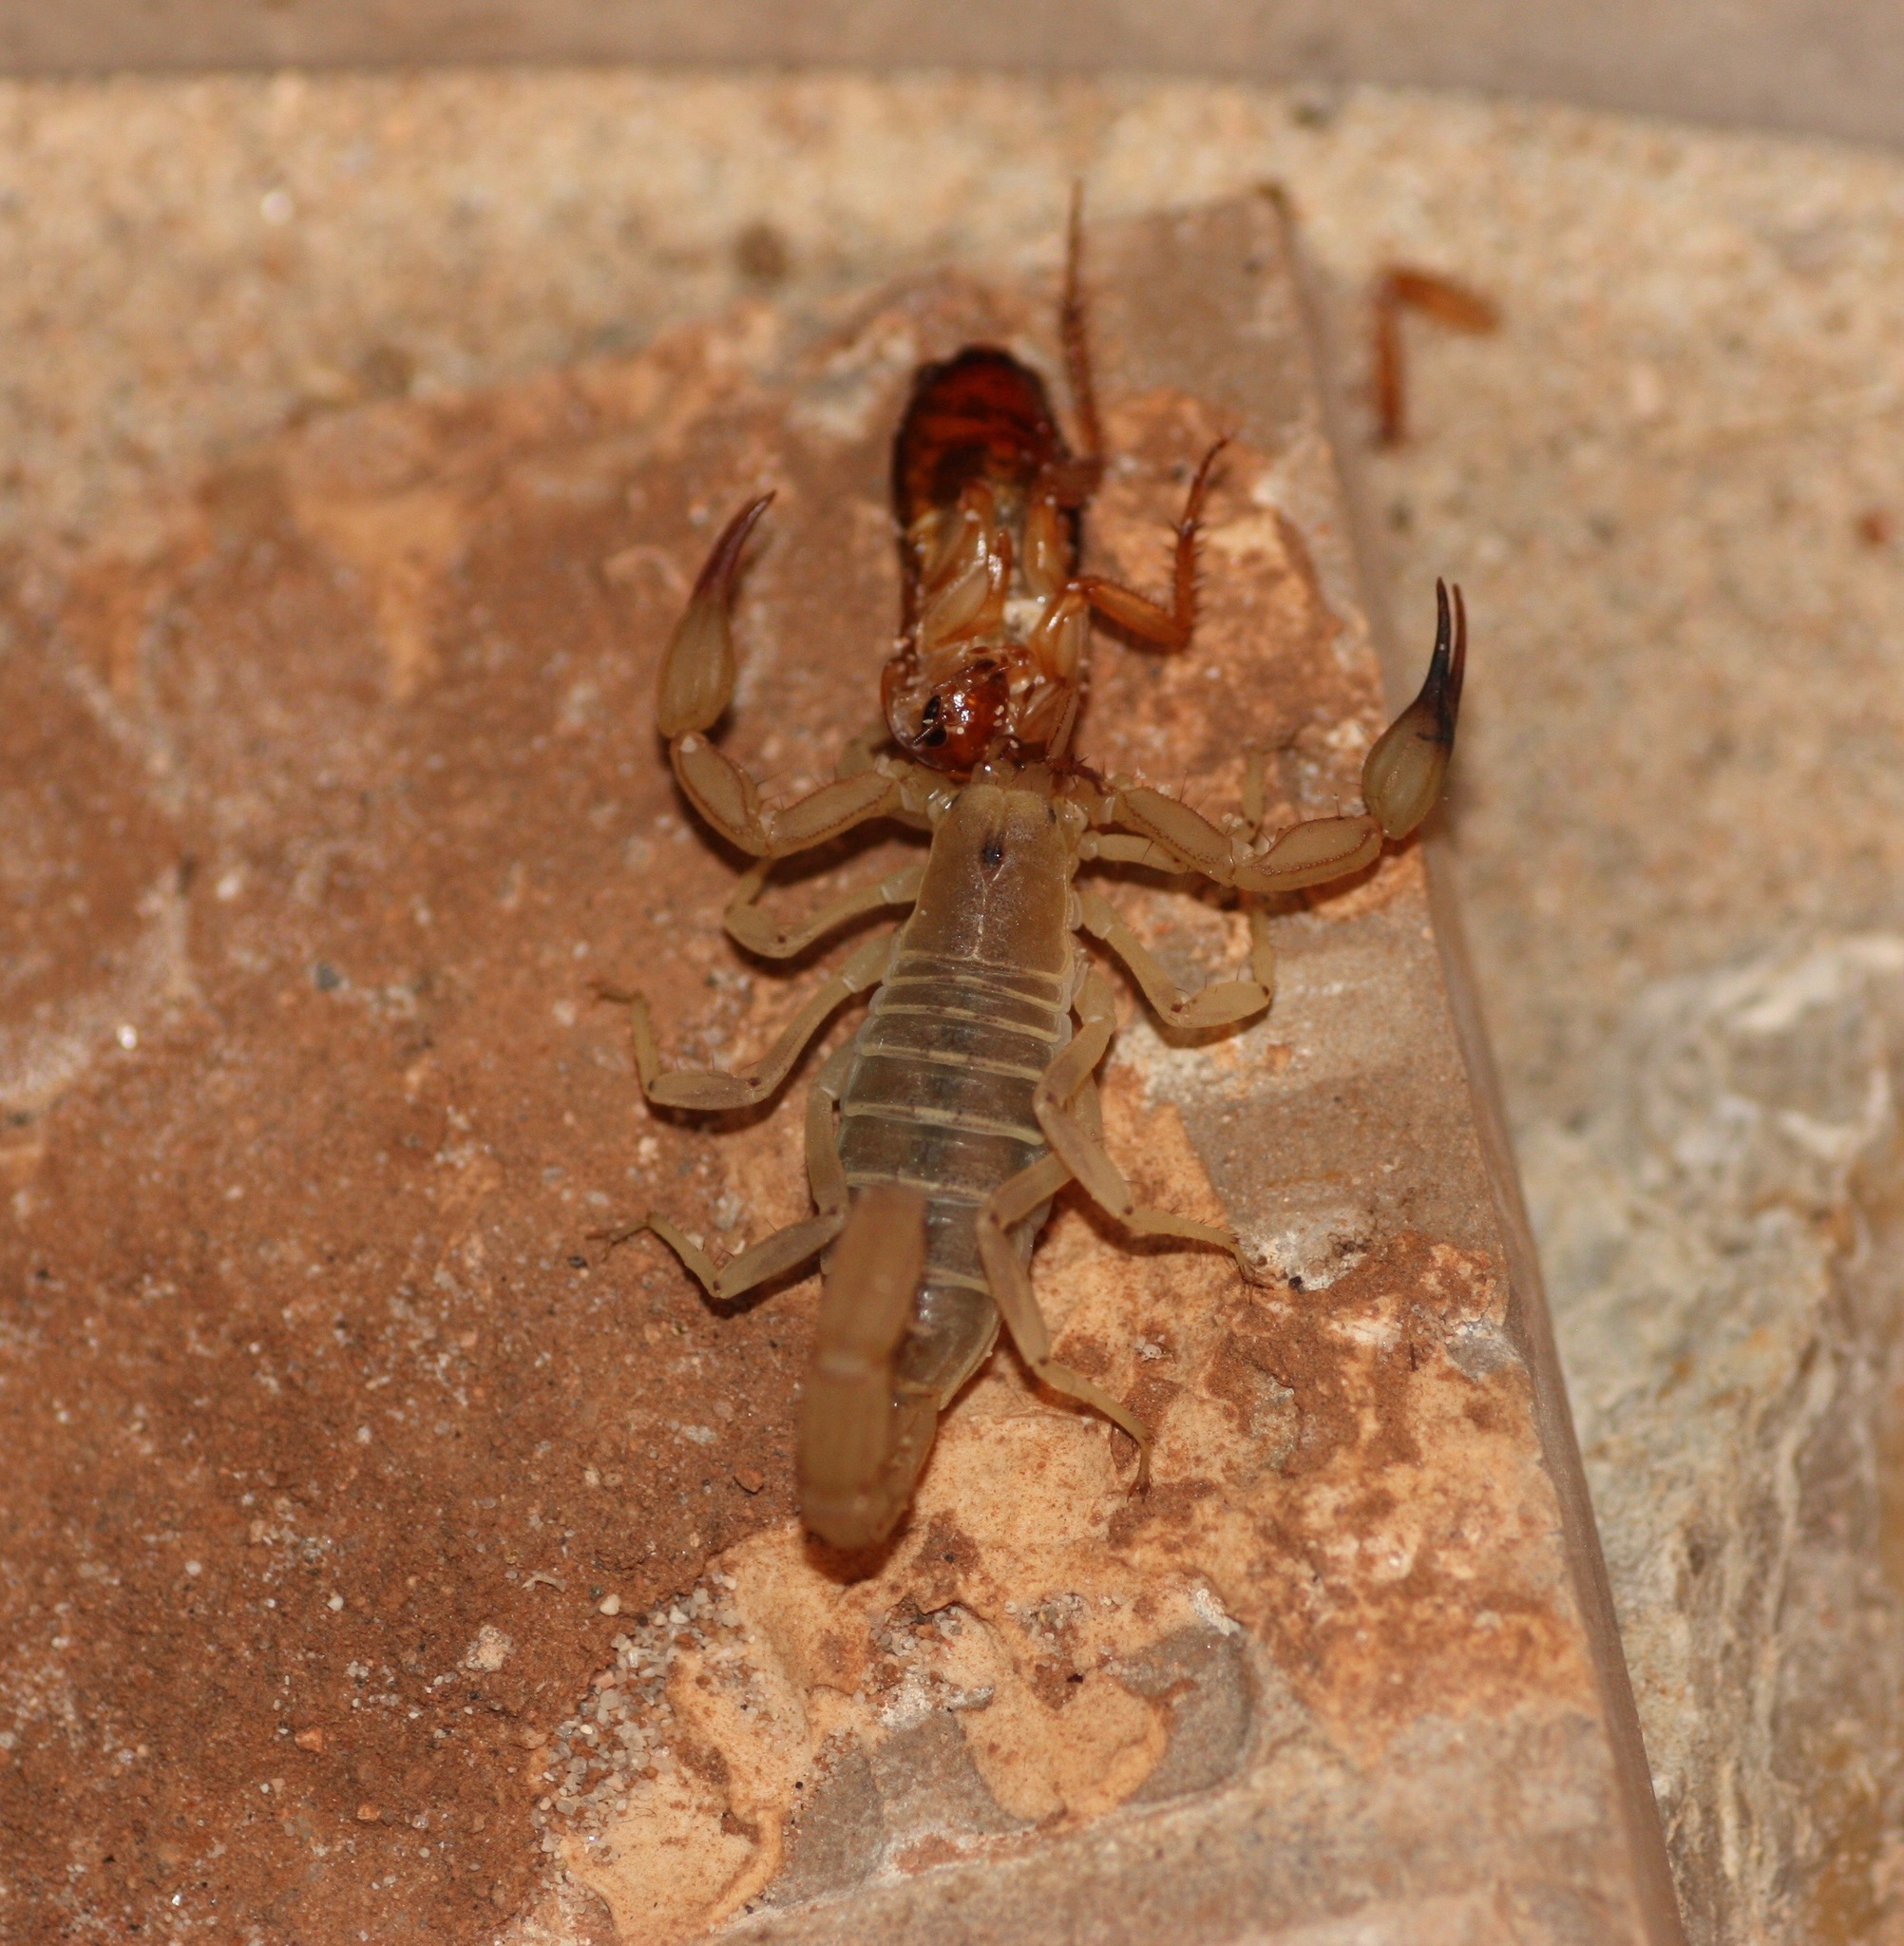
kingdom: Animalia
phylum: Arthropoda
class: Arachnida
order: Scorpiones
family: Vaejovidae
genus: Chihuahuanus
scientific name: Chihuahuanus russelli
